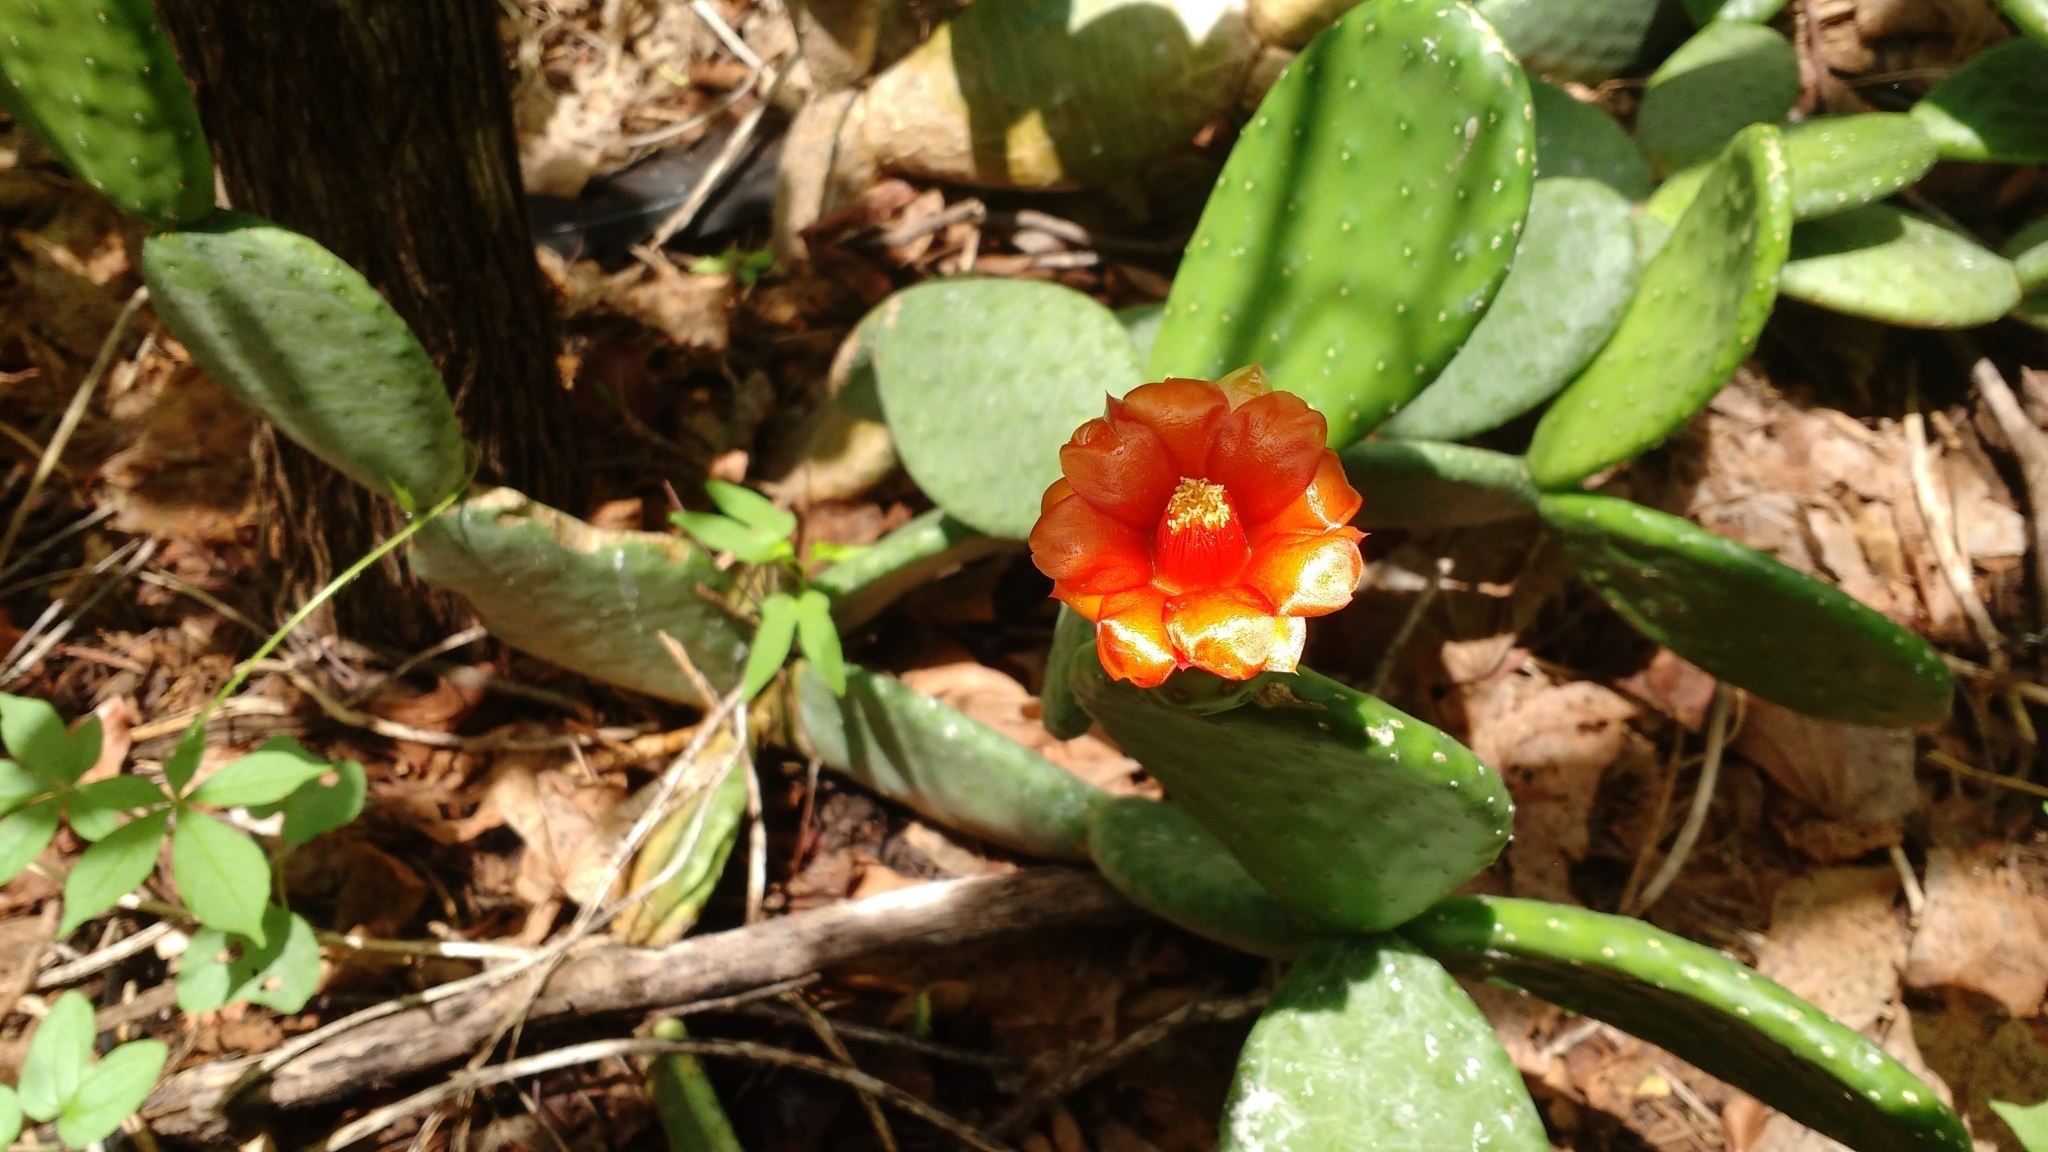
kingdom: Plantae
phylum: Tracheophyta
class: Magnoliopsida
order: Caryophyllales
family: Cactaceae
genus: Tacinga
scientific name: Tacinga inamoena
